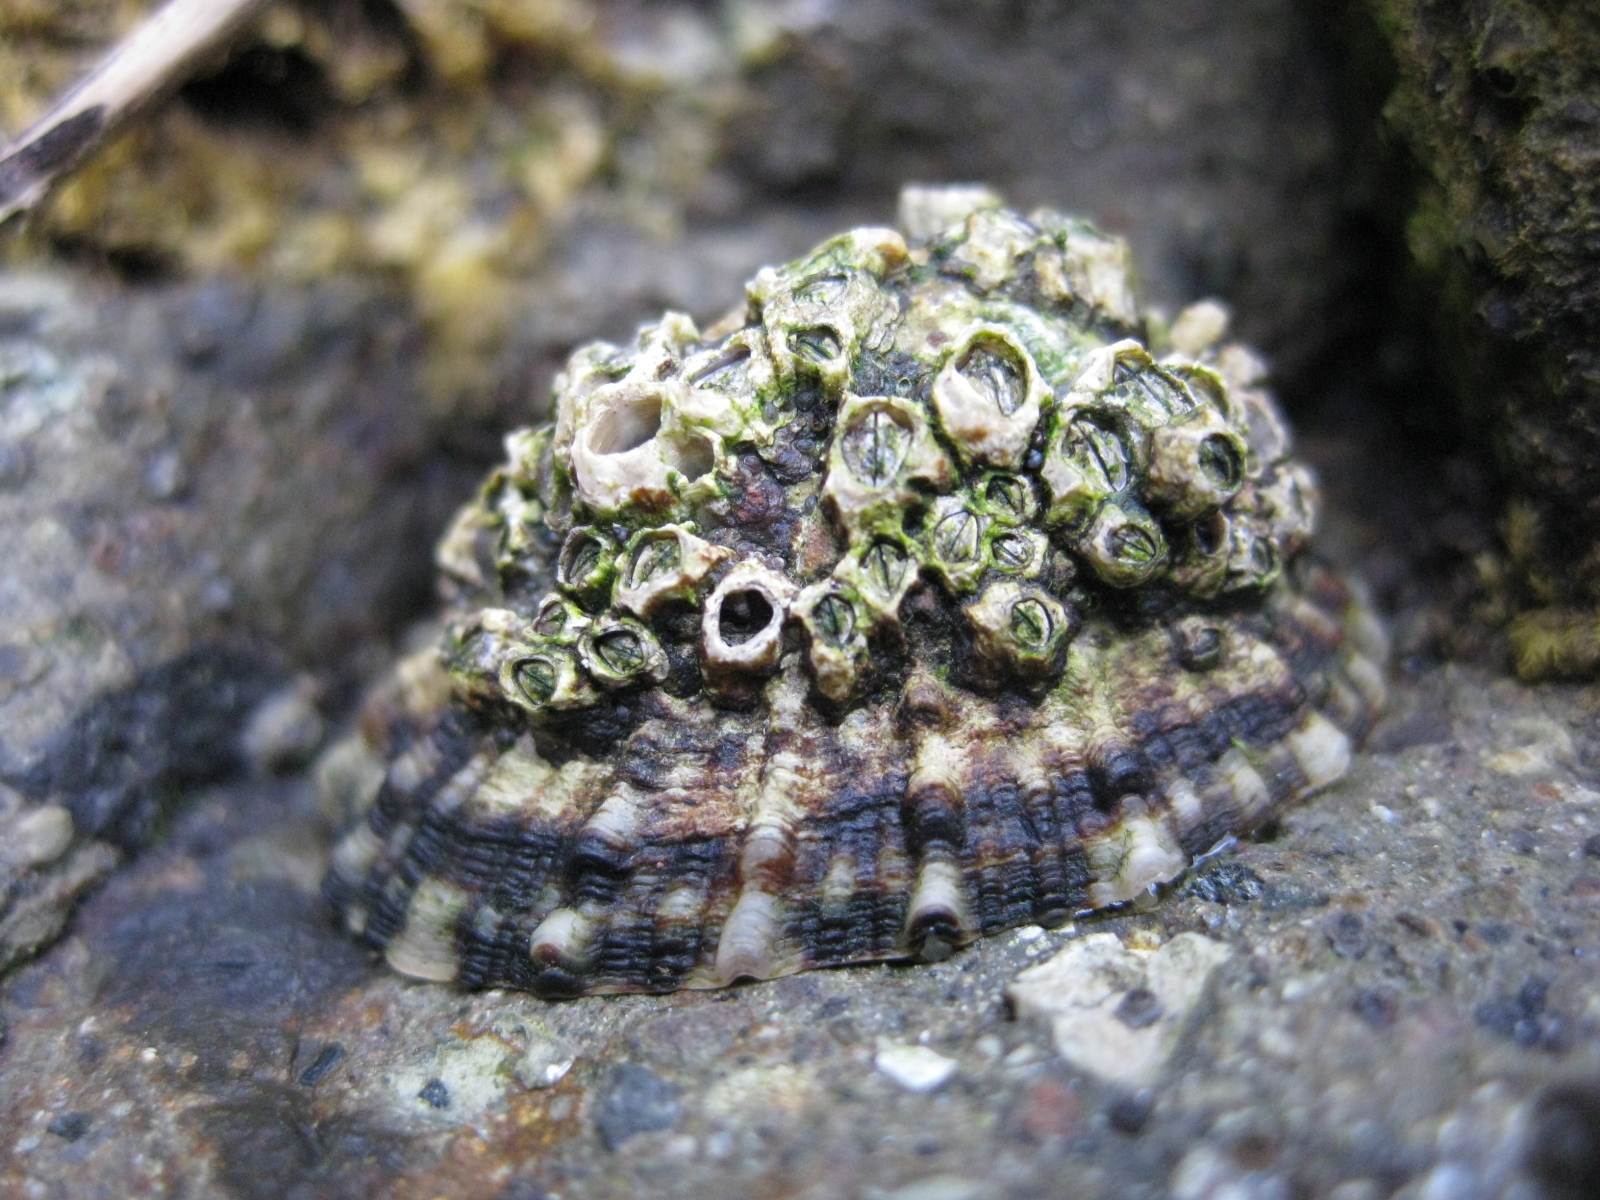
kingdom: Animalia
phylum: Mollusca
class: Gastropoda
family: Nacellidae
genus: Cellana
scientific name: Cellana ornata
